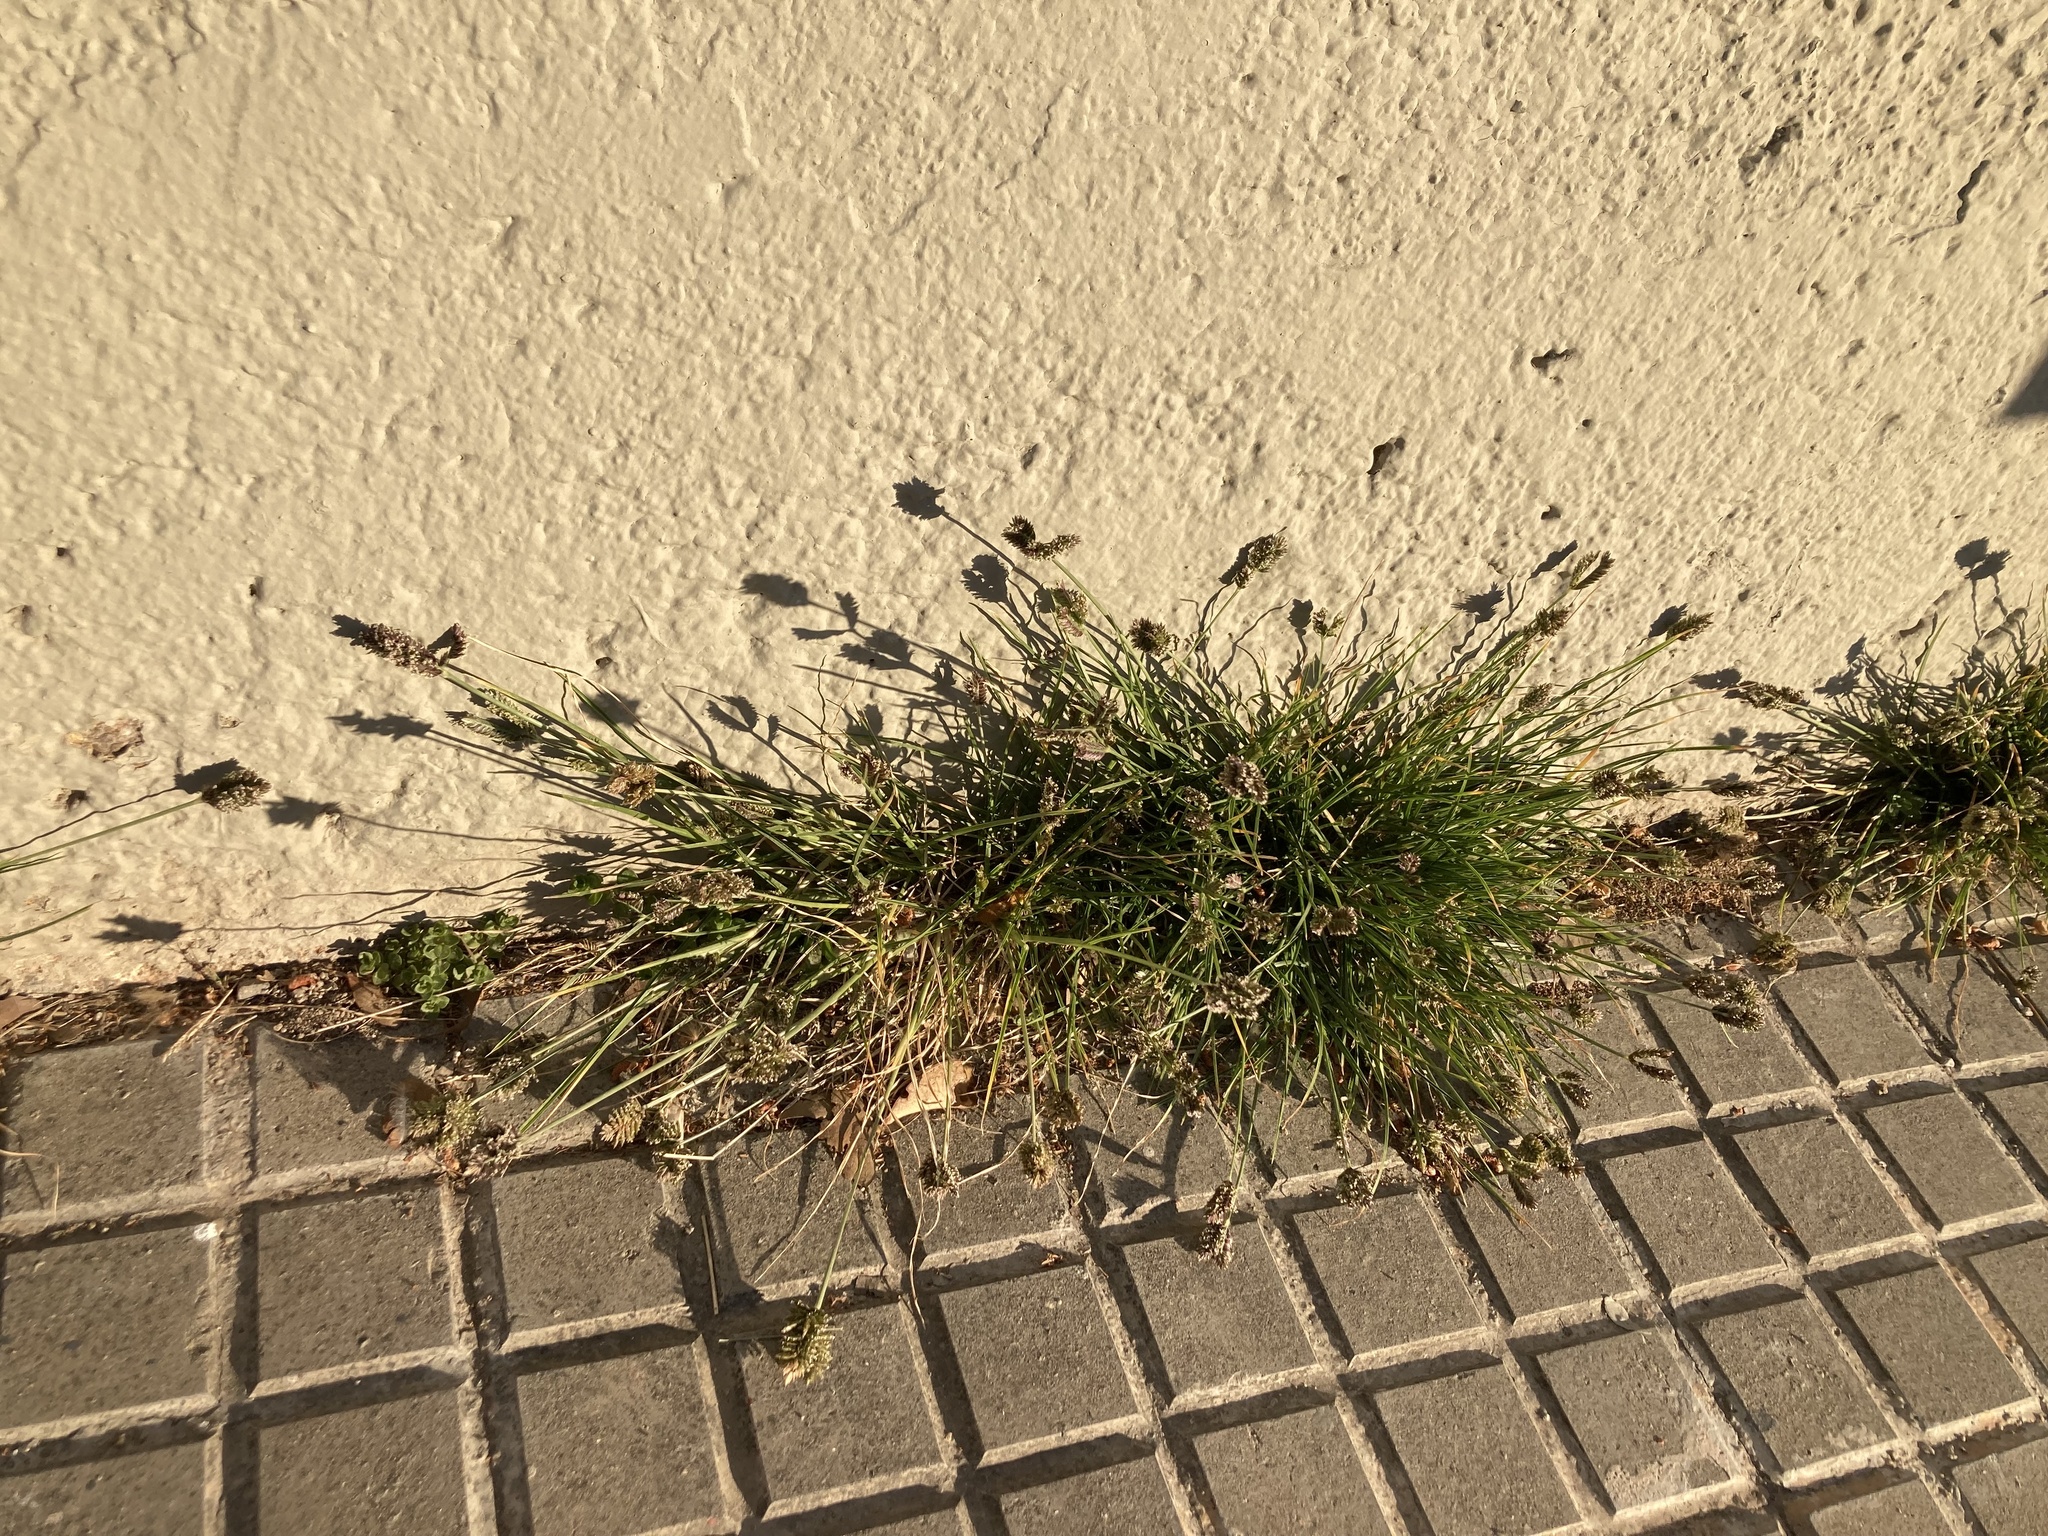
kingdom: Plantae
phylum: Tracheophyta
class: Liliopsida
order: Poales
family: Poaceae
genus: Eleusine
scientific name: Eleusine tristachya
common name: American yard-grass
